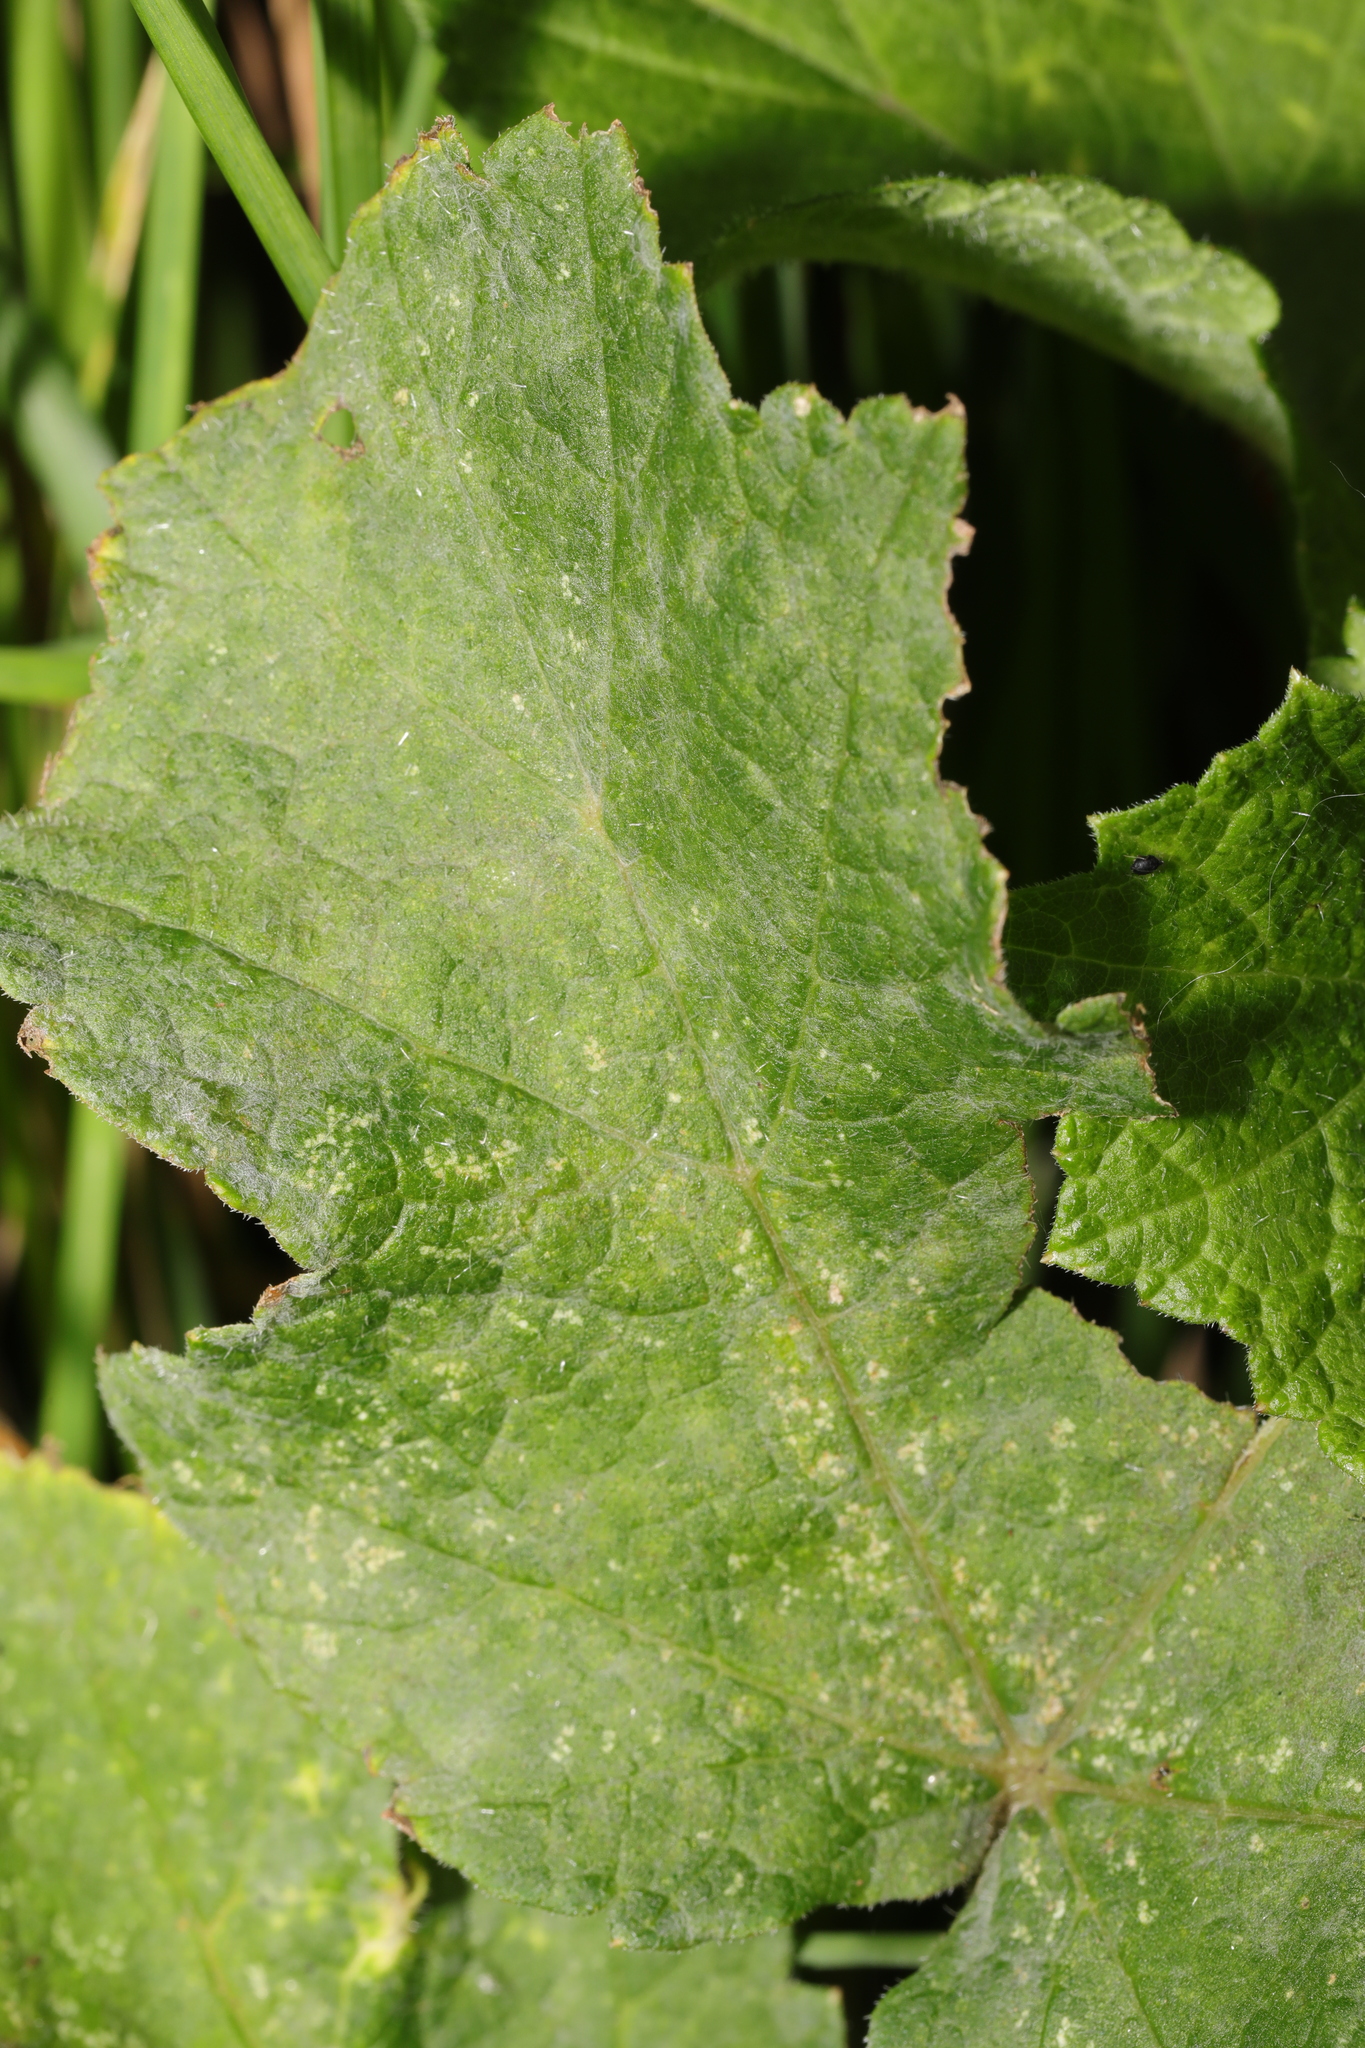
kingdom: Fungi
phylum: Ascomycota
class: Leotiomycetes
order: Helotiales
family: Erysiphaceae
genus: Erysiphe
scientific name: Erysiphe heraclei
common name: Umbellifer mildew
